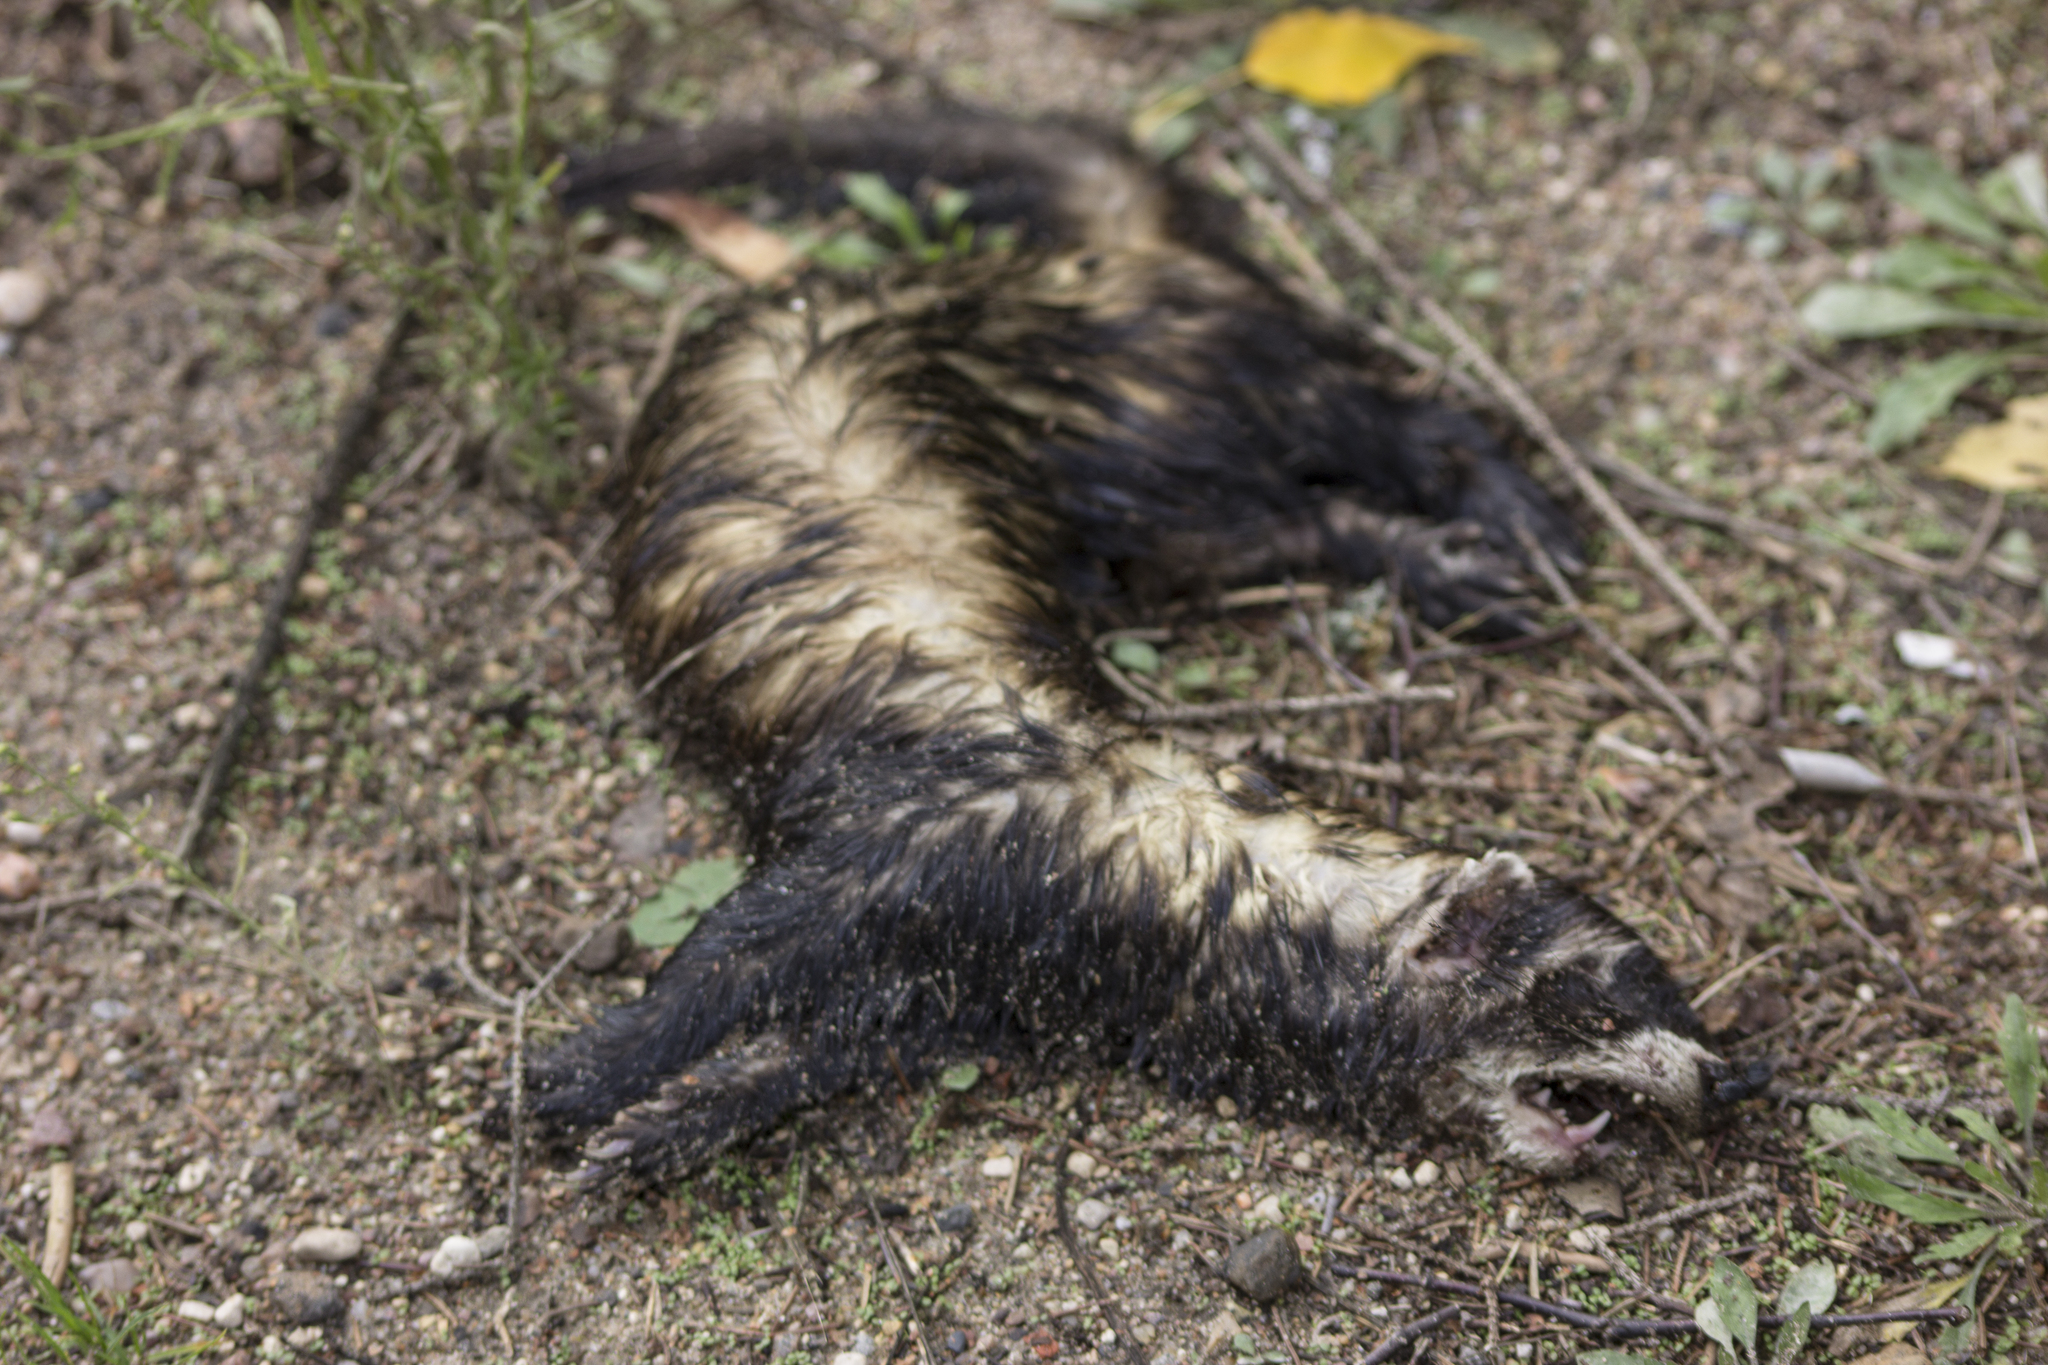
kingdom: Animalia
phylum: Chordata
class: Mammalia
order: Carnivora
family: Mustelidae
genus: Mustela
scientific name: Mustela putorius
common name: European polecat
